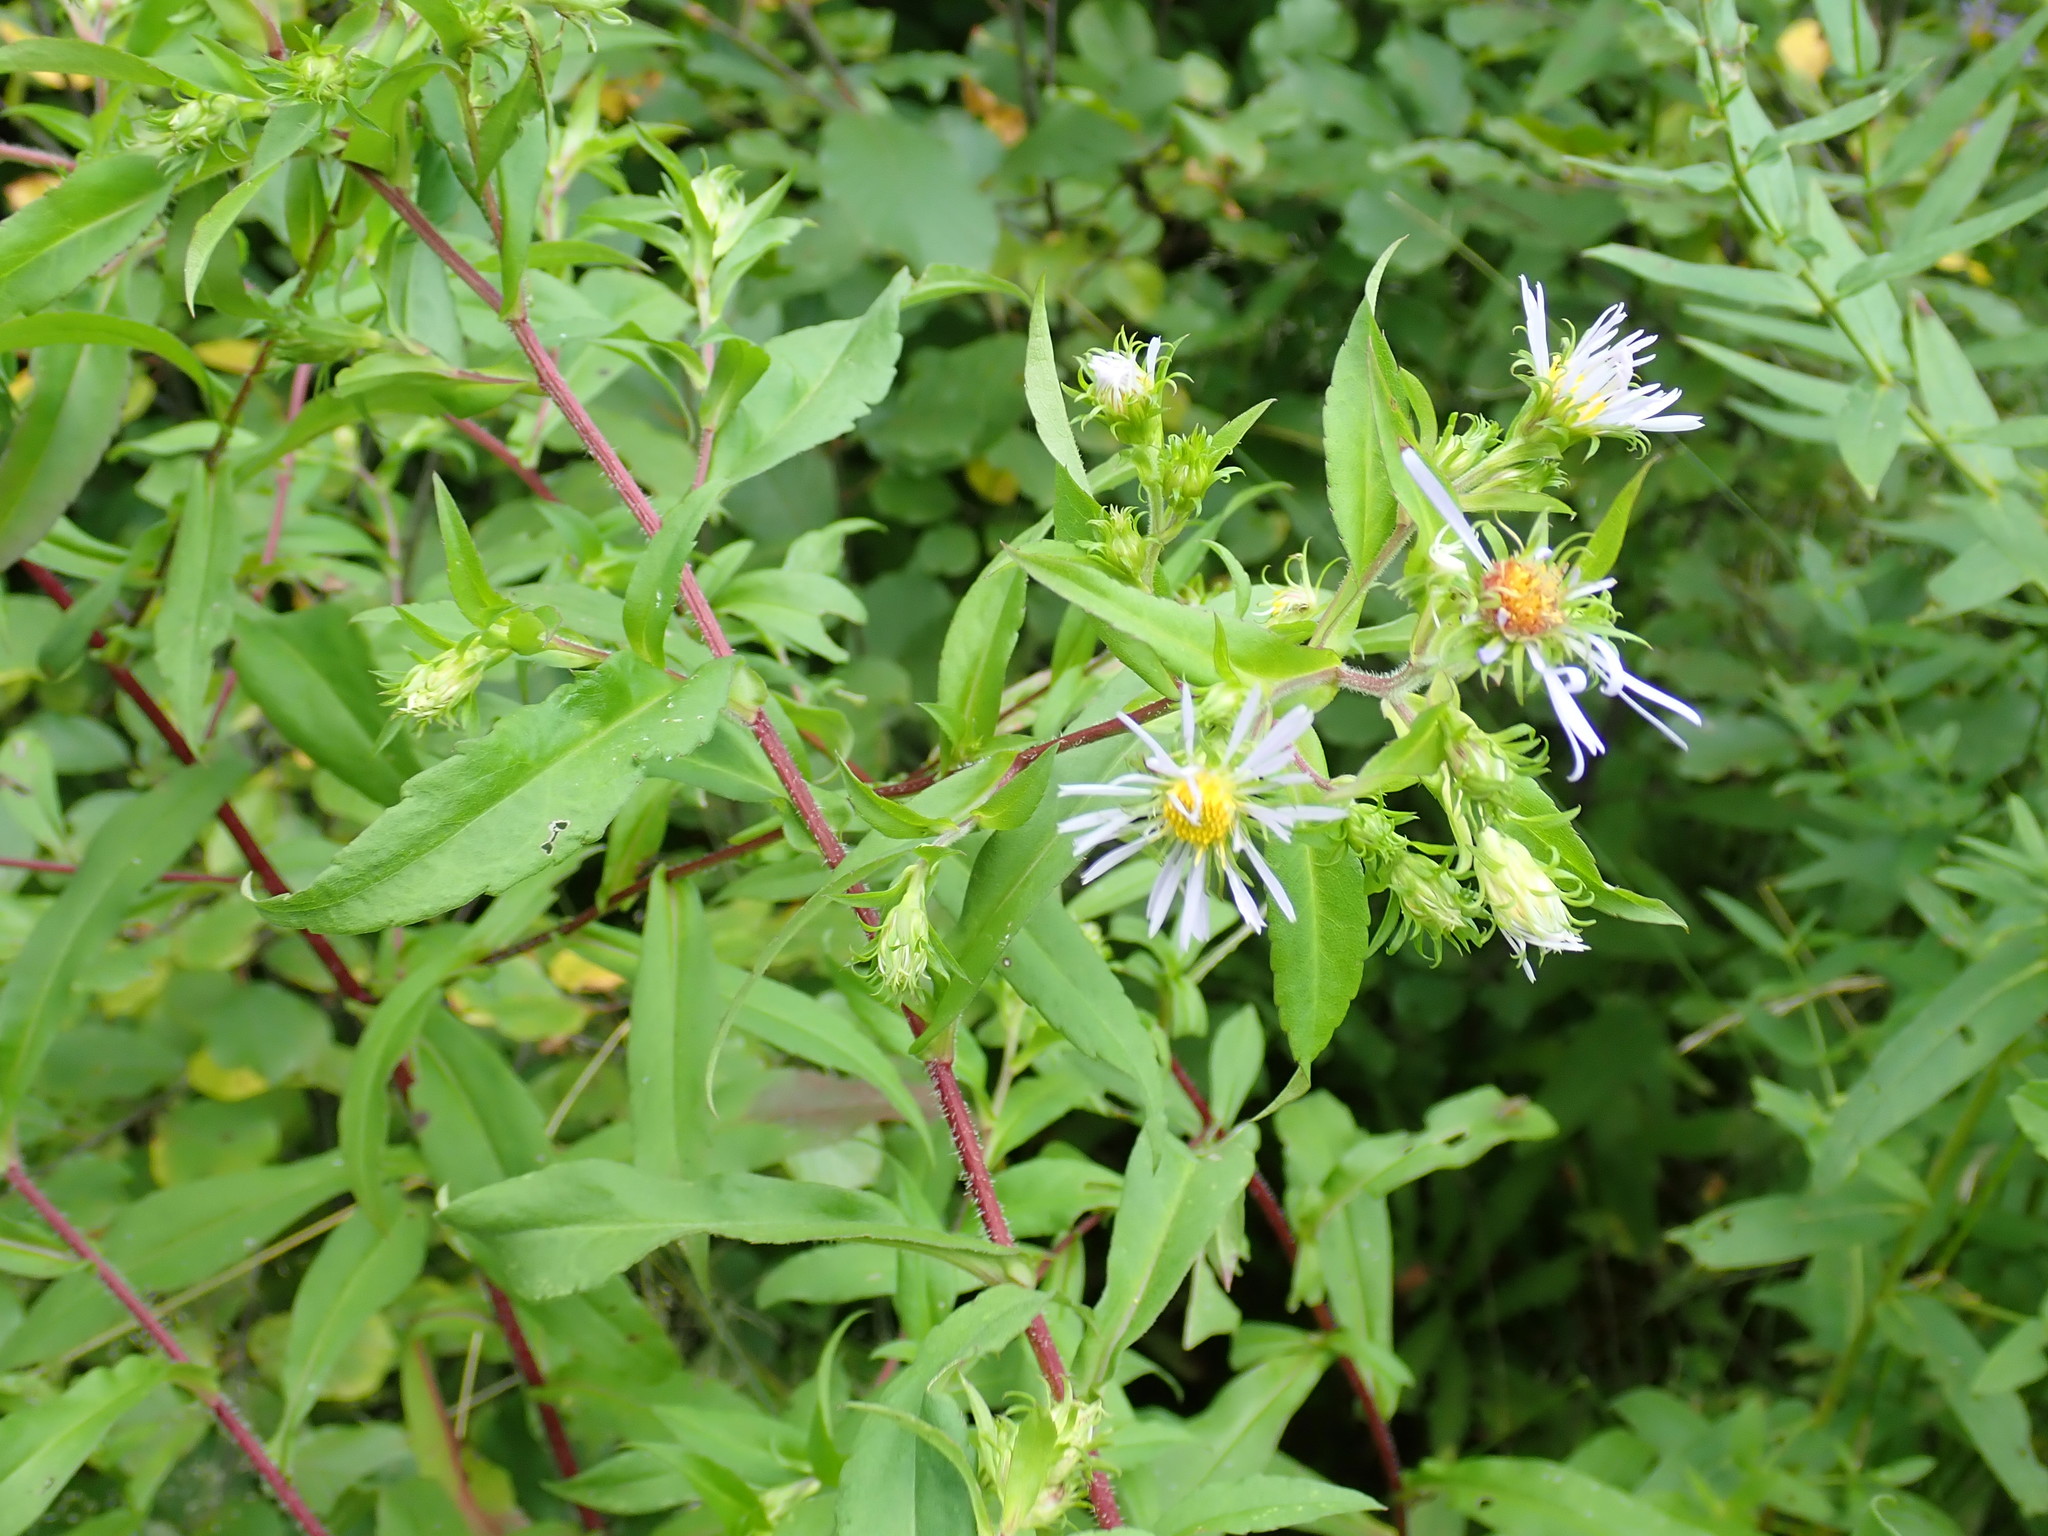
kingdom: Plantae
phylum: Tracheophyta
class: Magnoliopsida
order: Asterales
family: Asteraceae
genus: Symphyotrichum
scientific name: Symphyotrichum puniceum
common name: Bog aster
